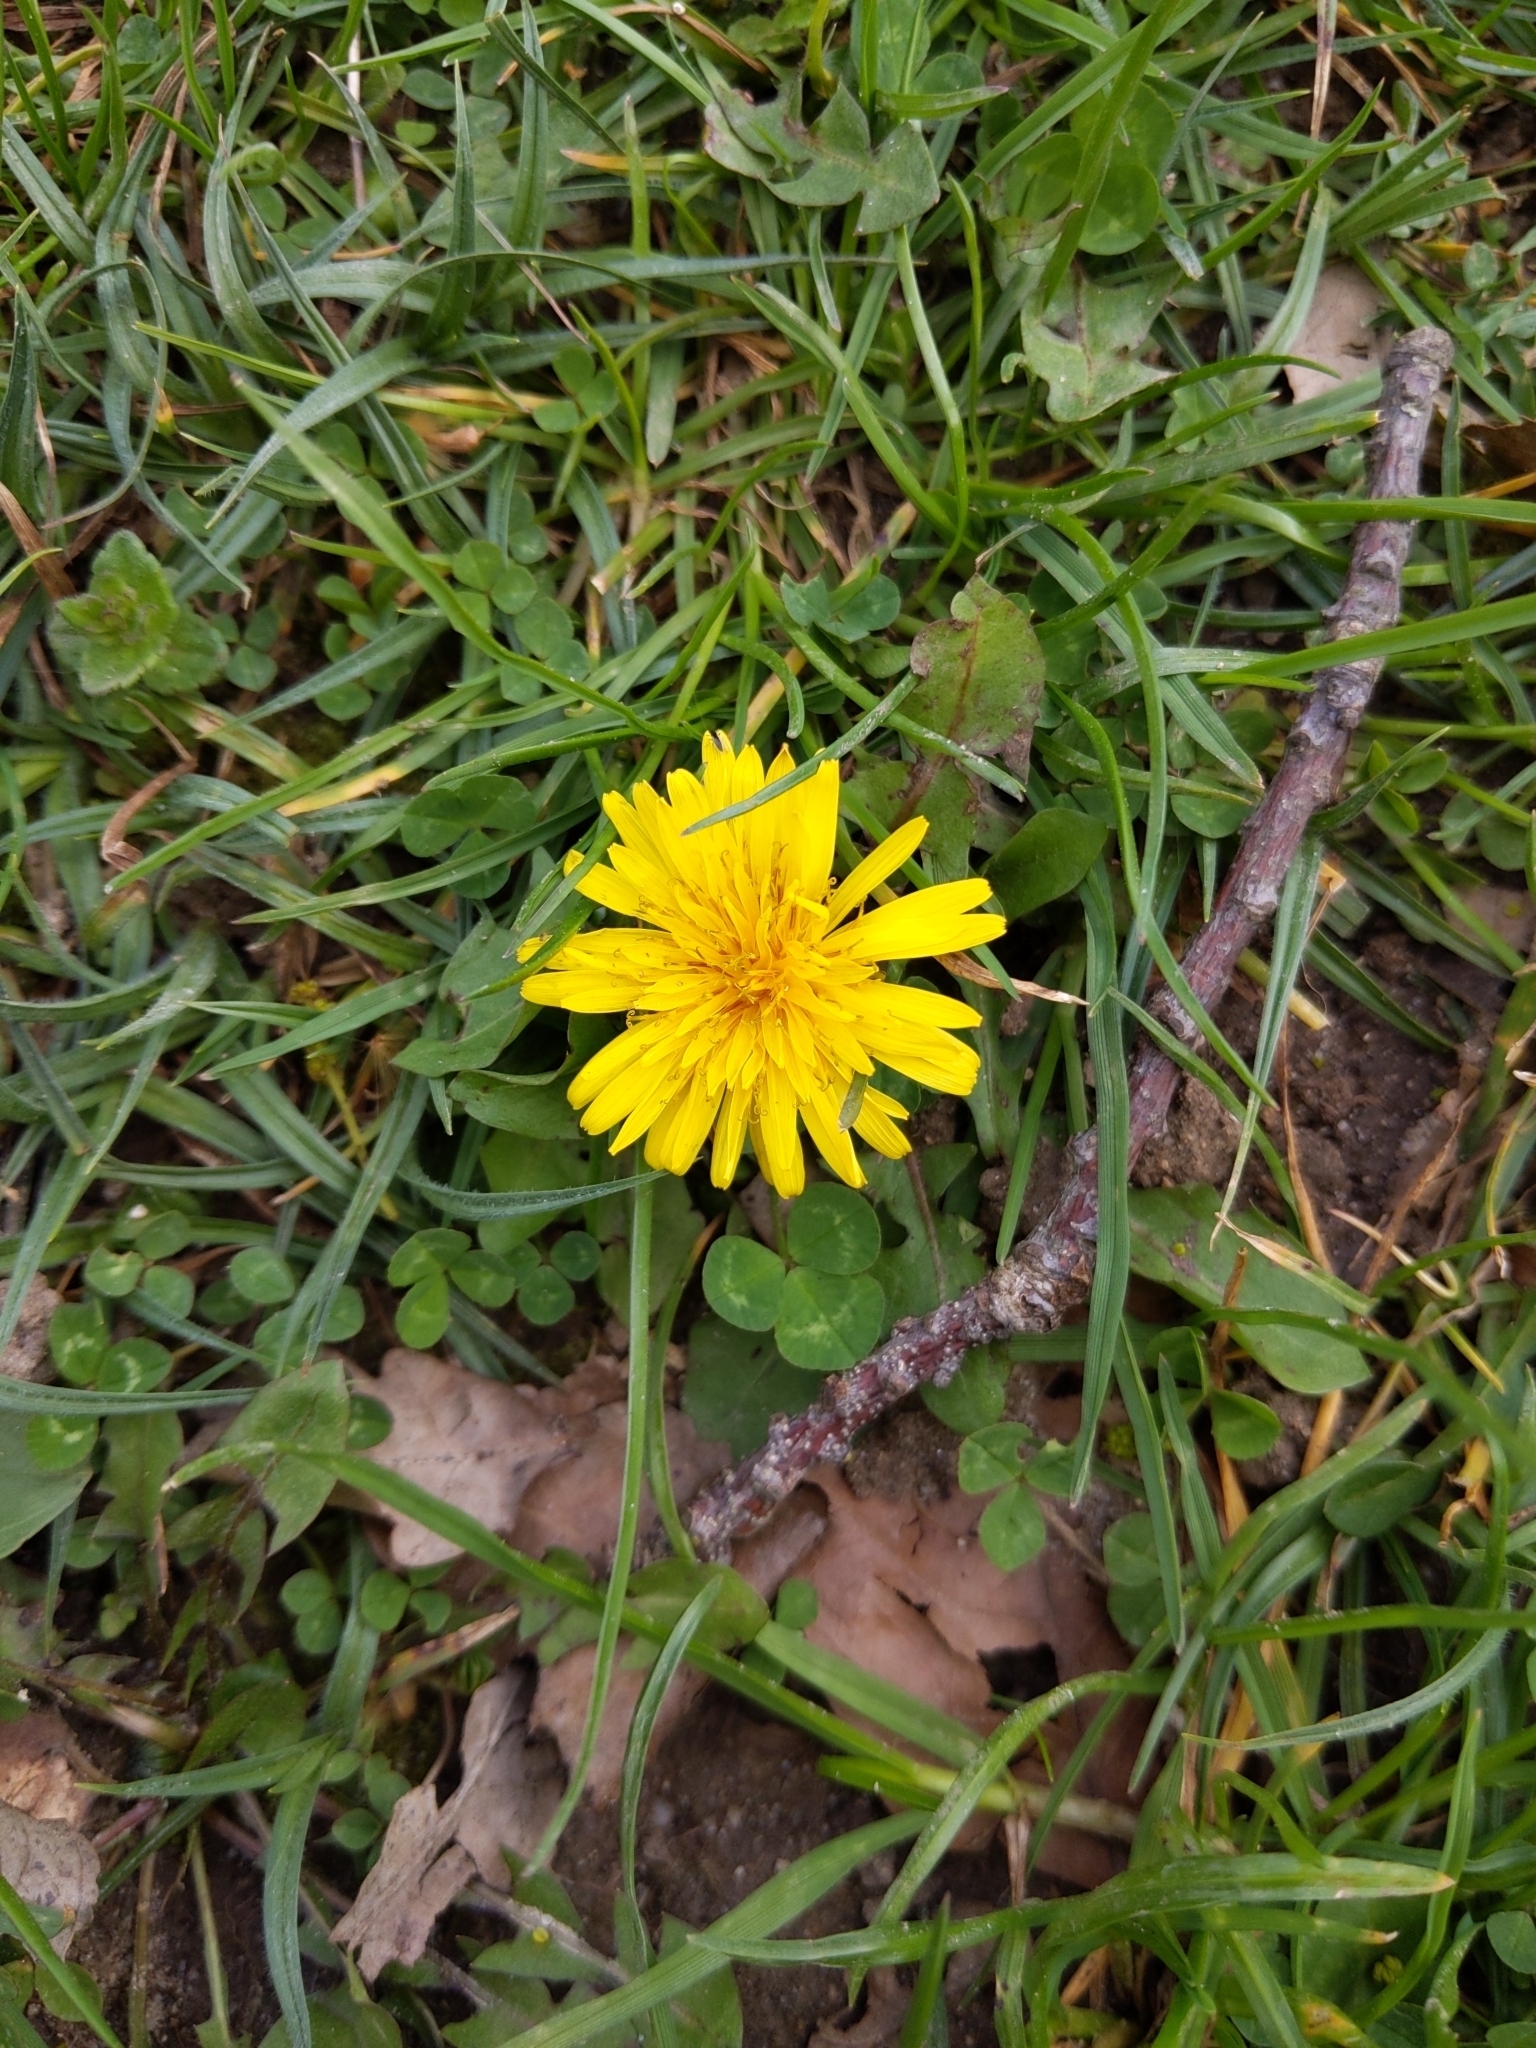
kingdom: Plantae
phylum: Tracheophyta
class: Magnoliopsida
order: Asterales
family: Asteraceae
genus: Taraxacum
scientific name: Taraxacum officinale
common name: Common dandelion
